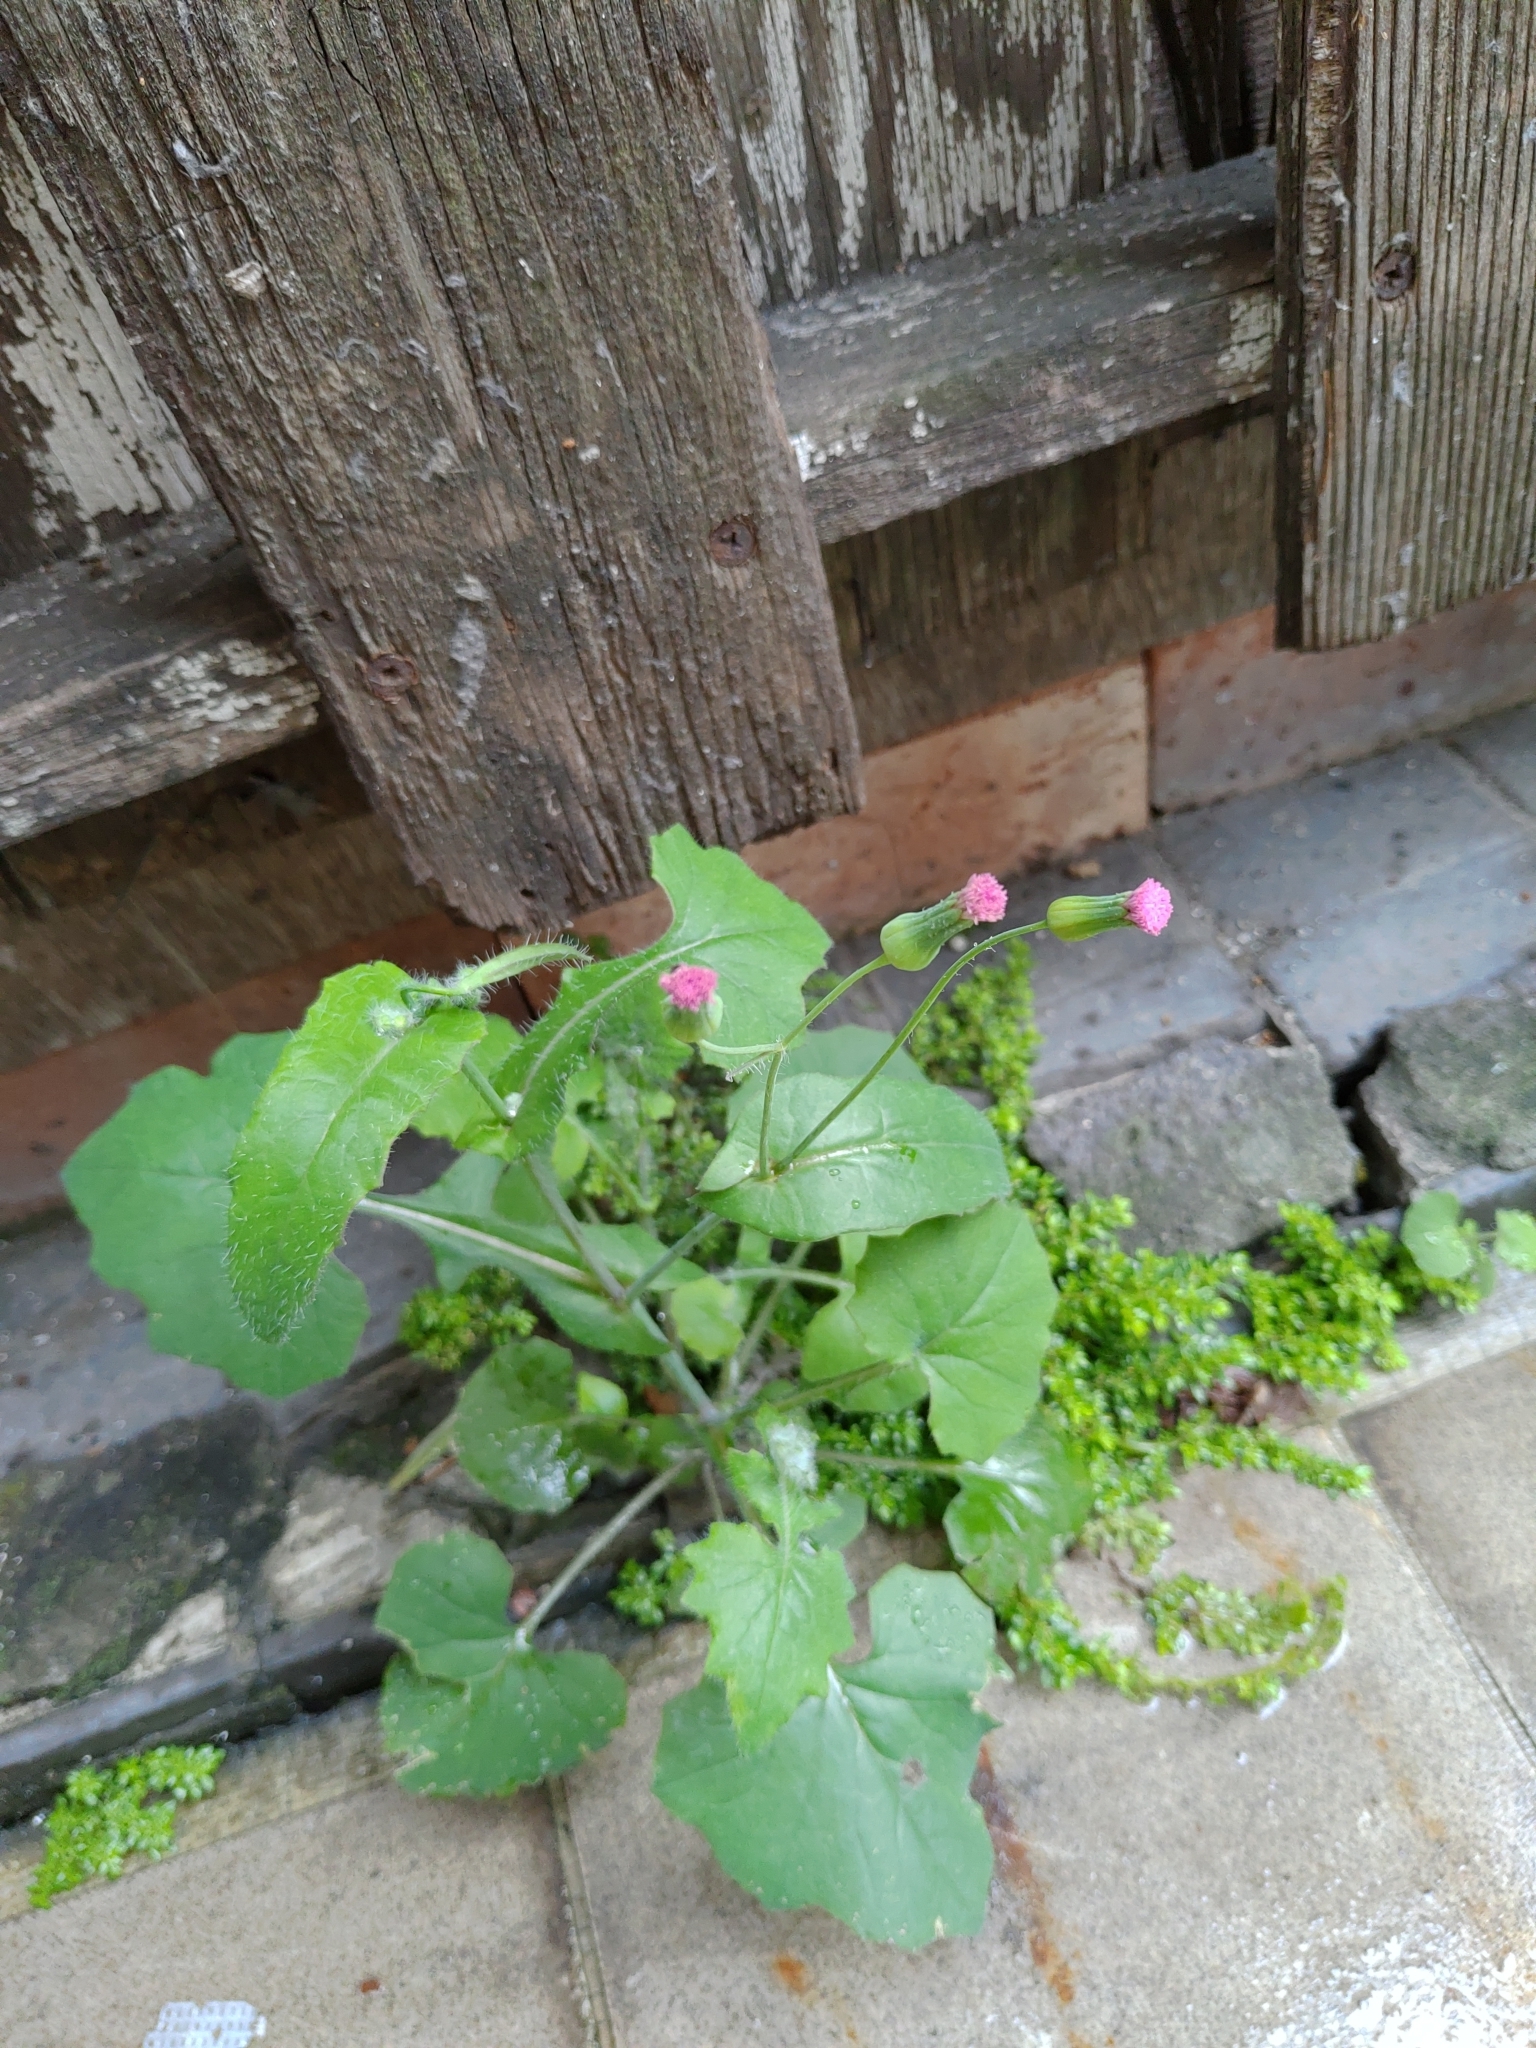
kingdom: Plantae
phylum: Tracheophyta
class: Magnoliopsida
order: Asterales
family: Asteraceae
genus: Emilia
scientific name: Emilia javanica
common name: Tassel-flower
